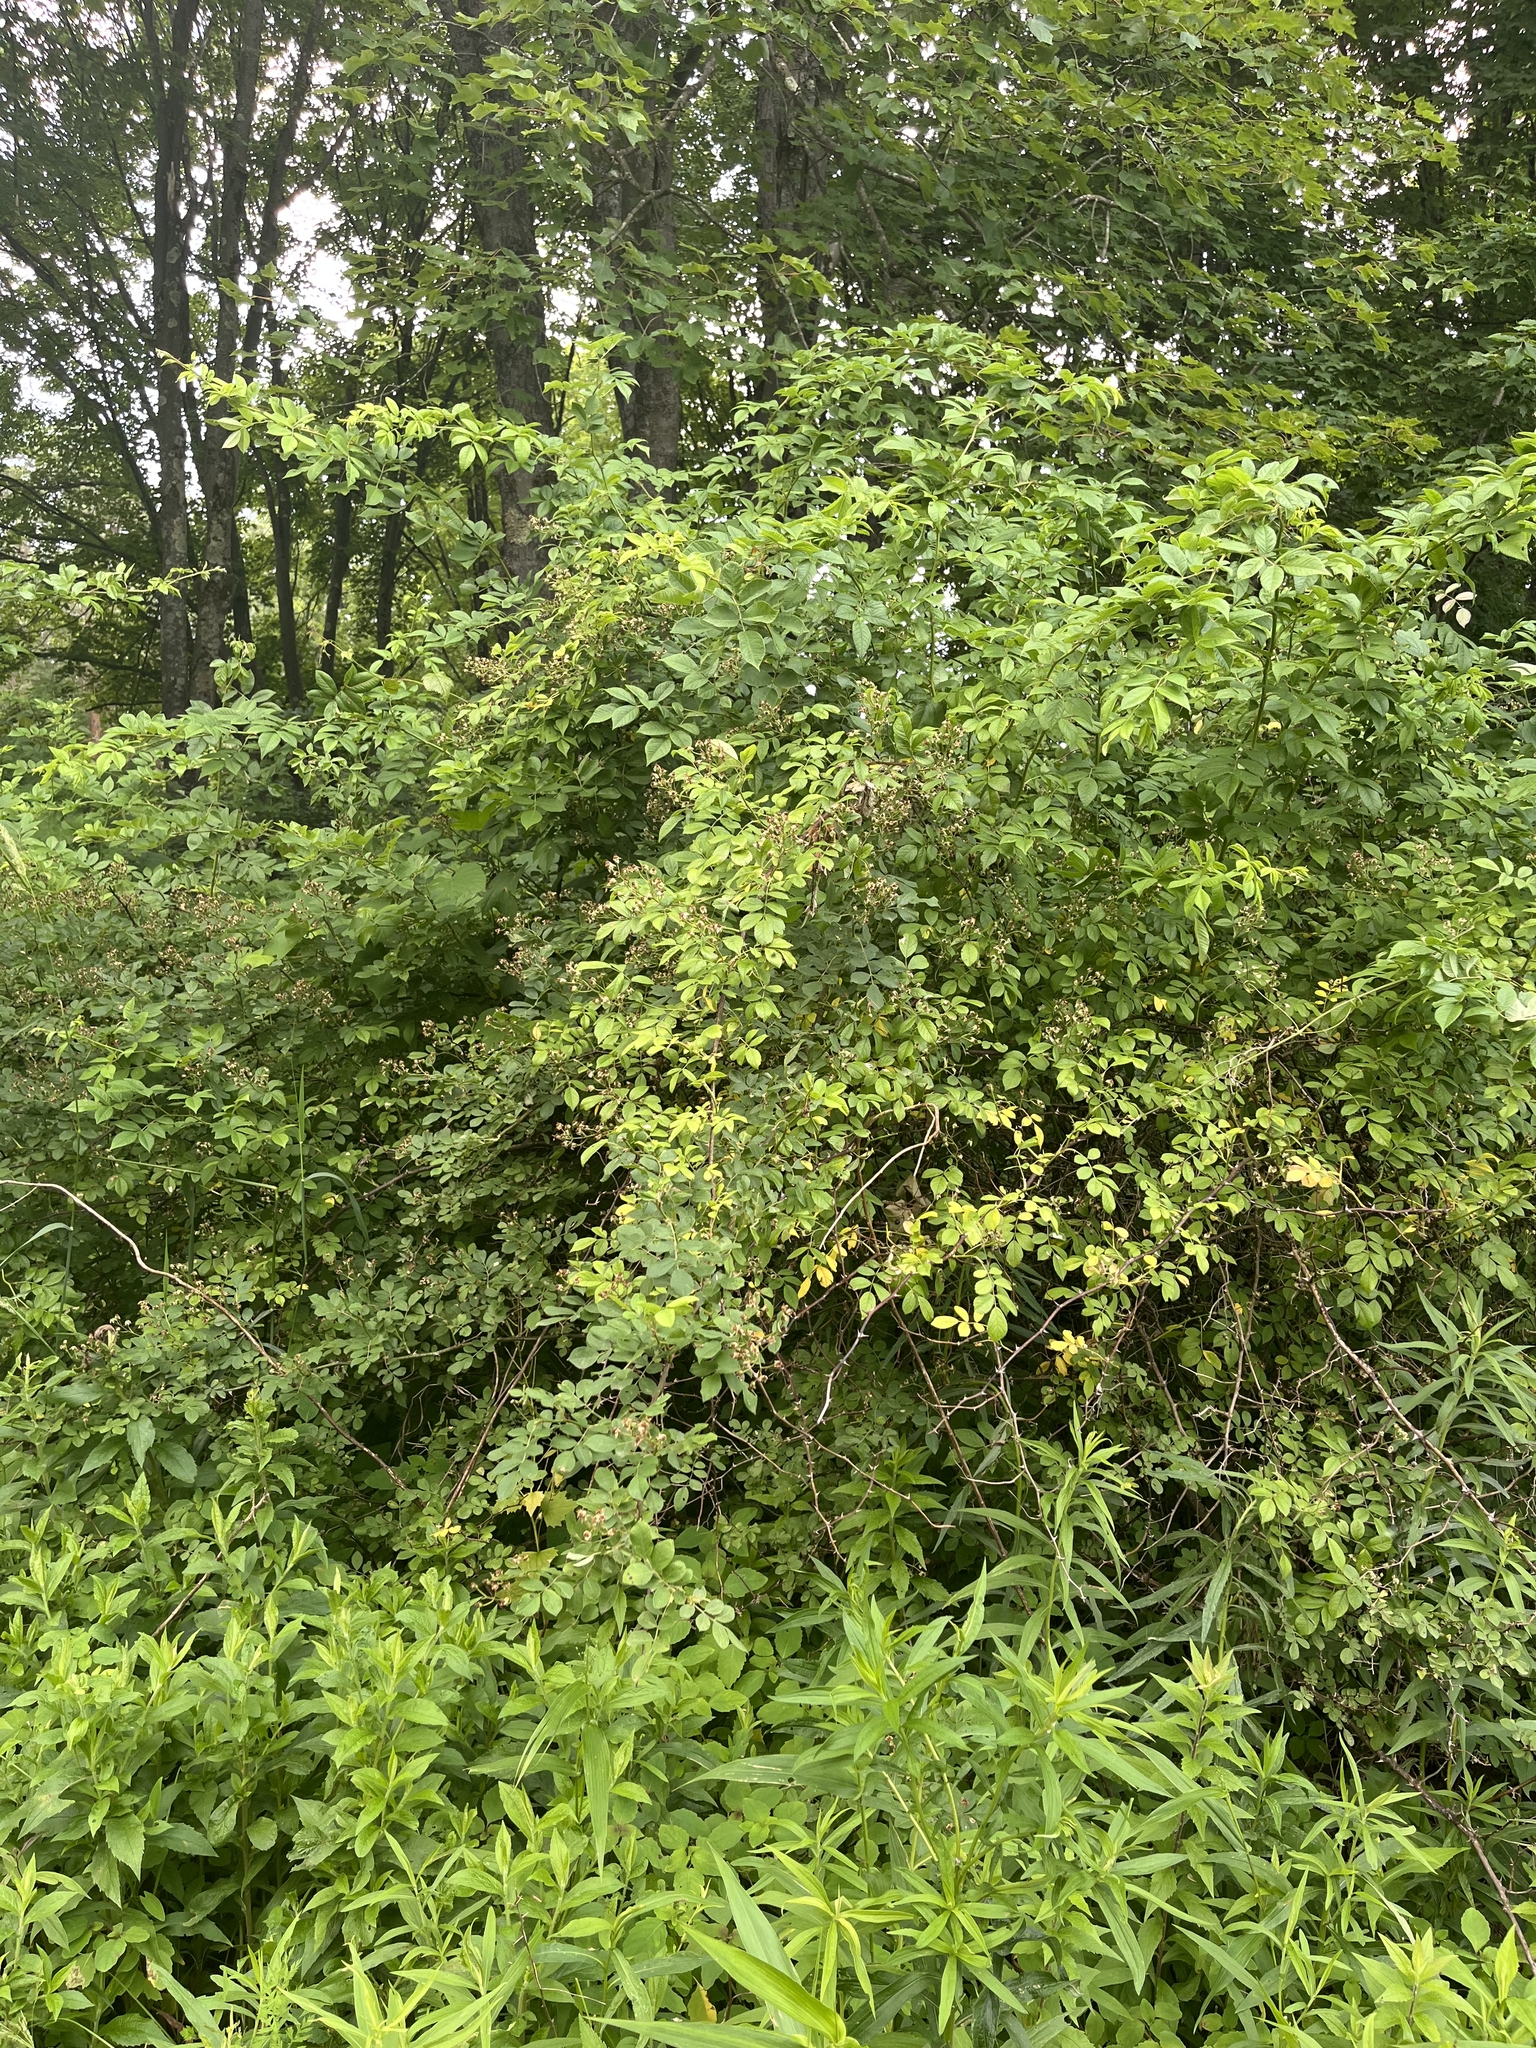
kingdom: Plantae
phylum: Tracheophyta
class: Magnoliopsida
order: Rosales
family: Rosaceae
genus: Rosa
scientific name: Rosa multiflora
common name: Multiflora rose
